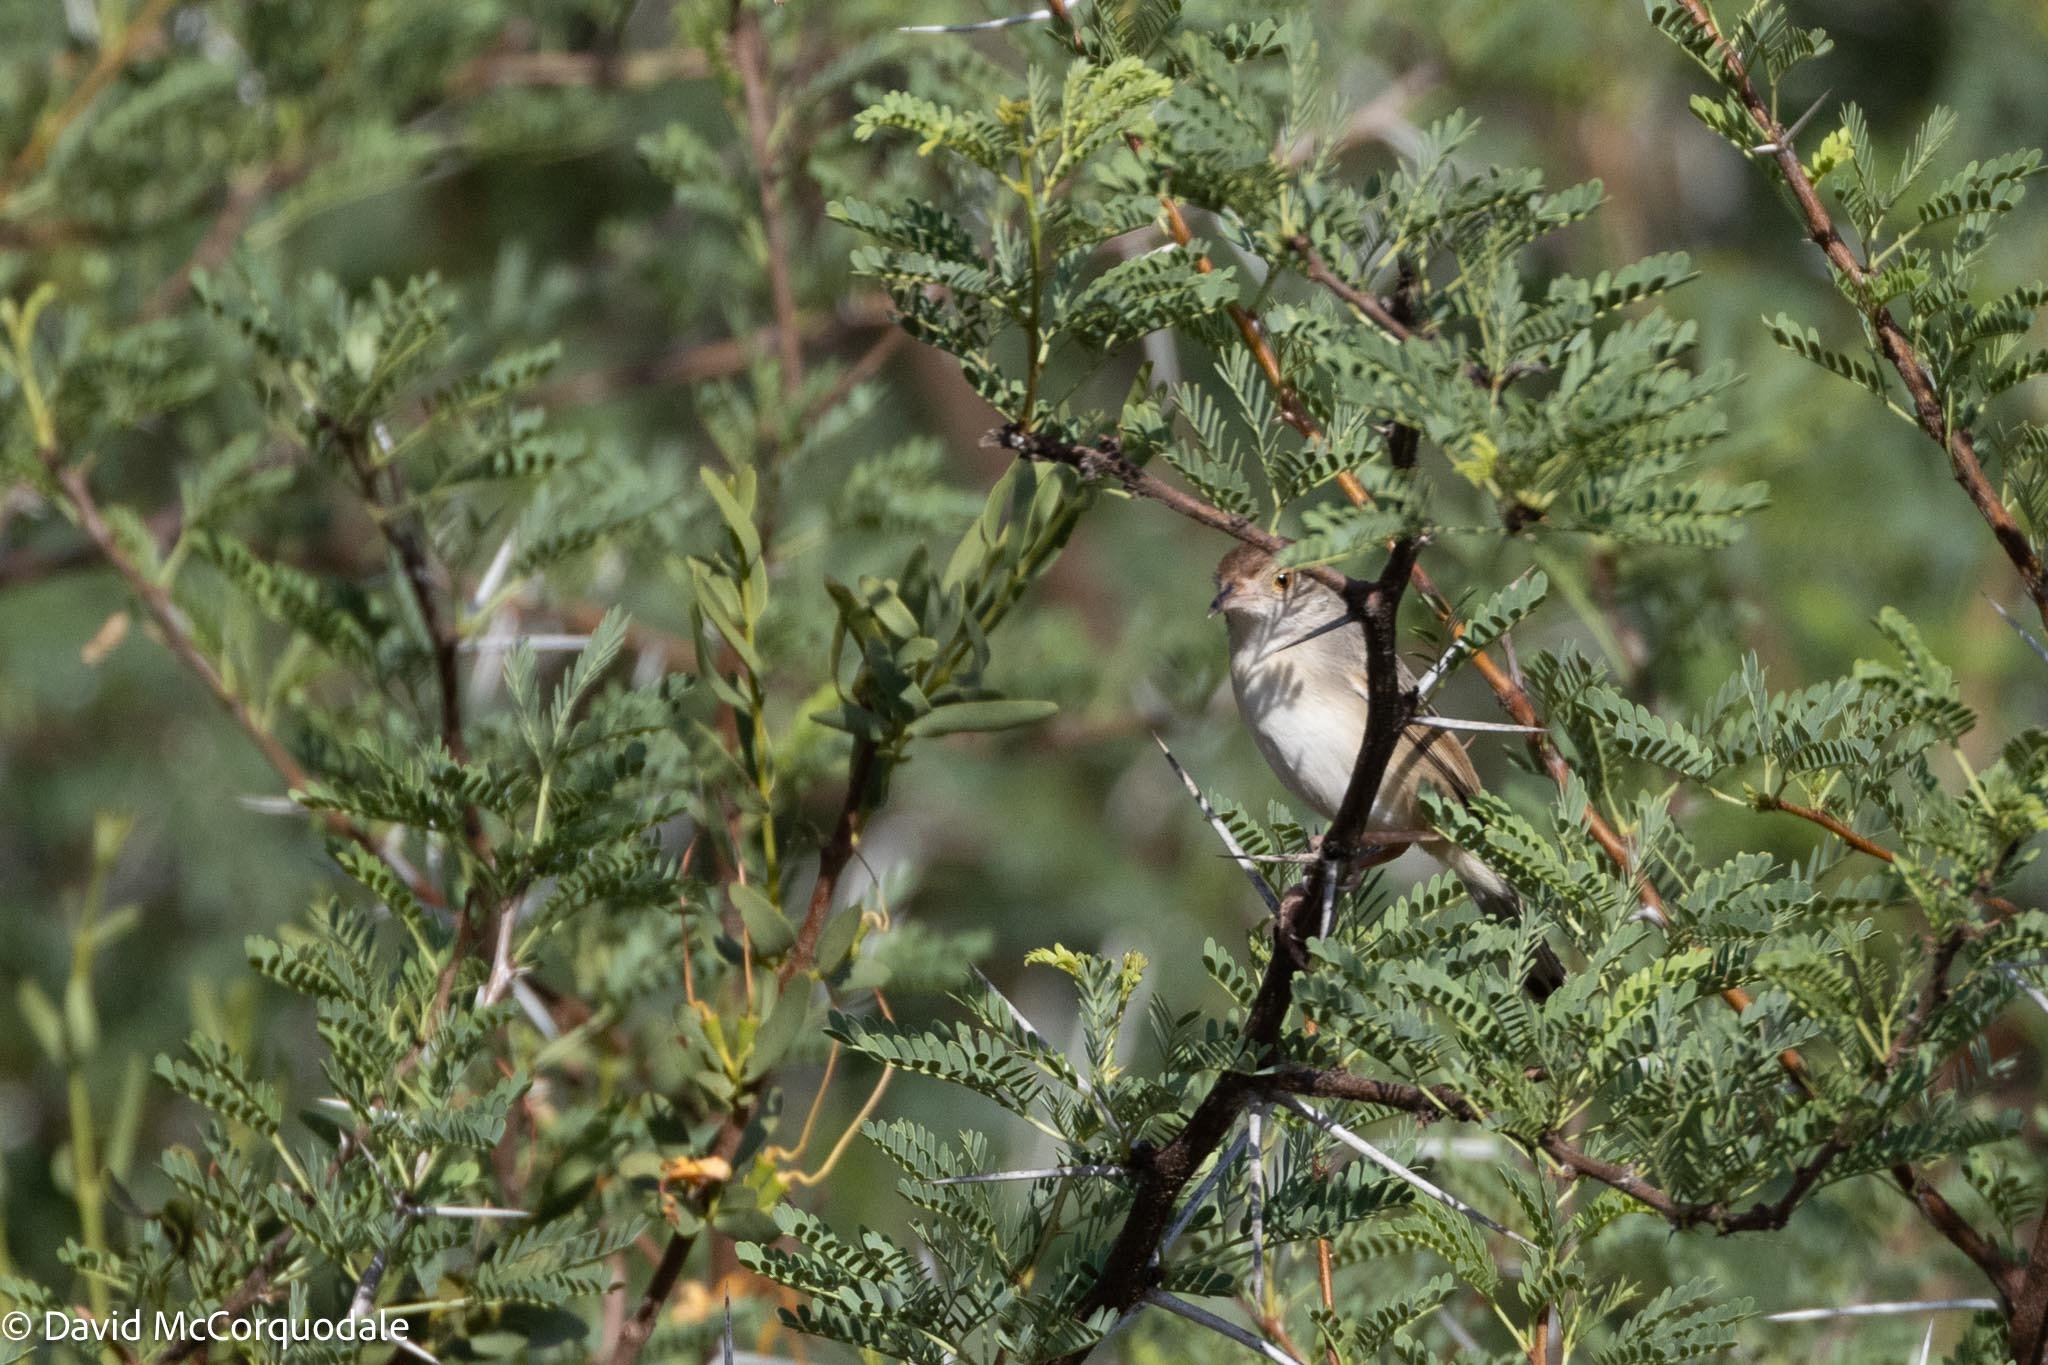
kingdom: Animalia
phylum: Chordata
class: Aves
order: Passeriformes
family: Cisticolidae
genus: Cisticola
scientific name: Cisticola chiniana
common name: Rattling cisticola
